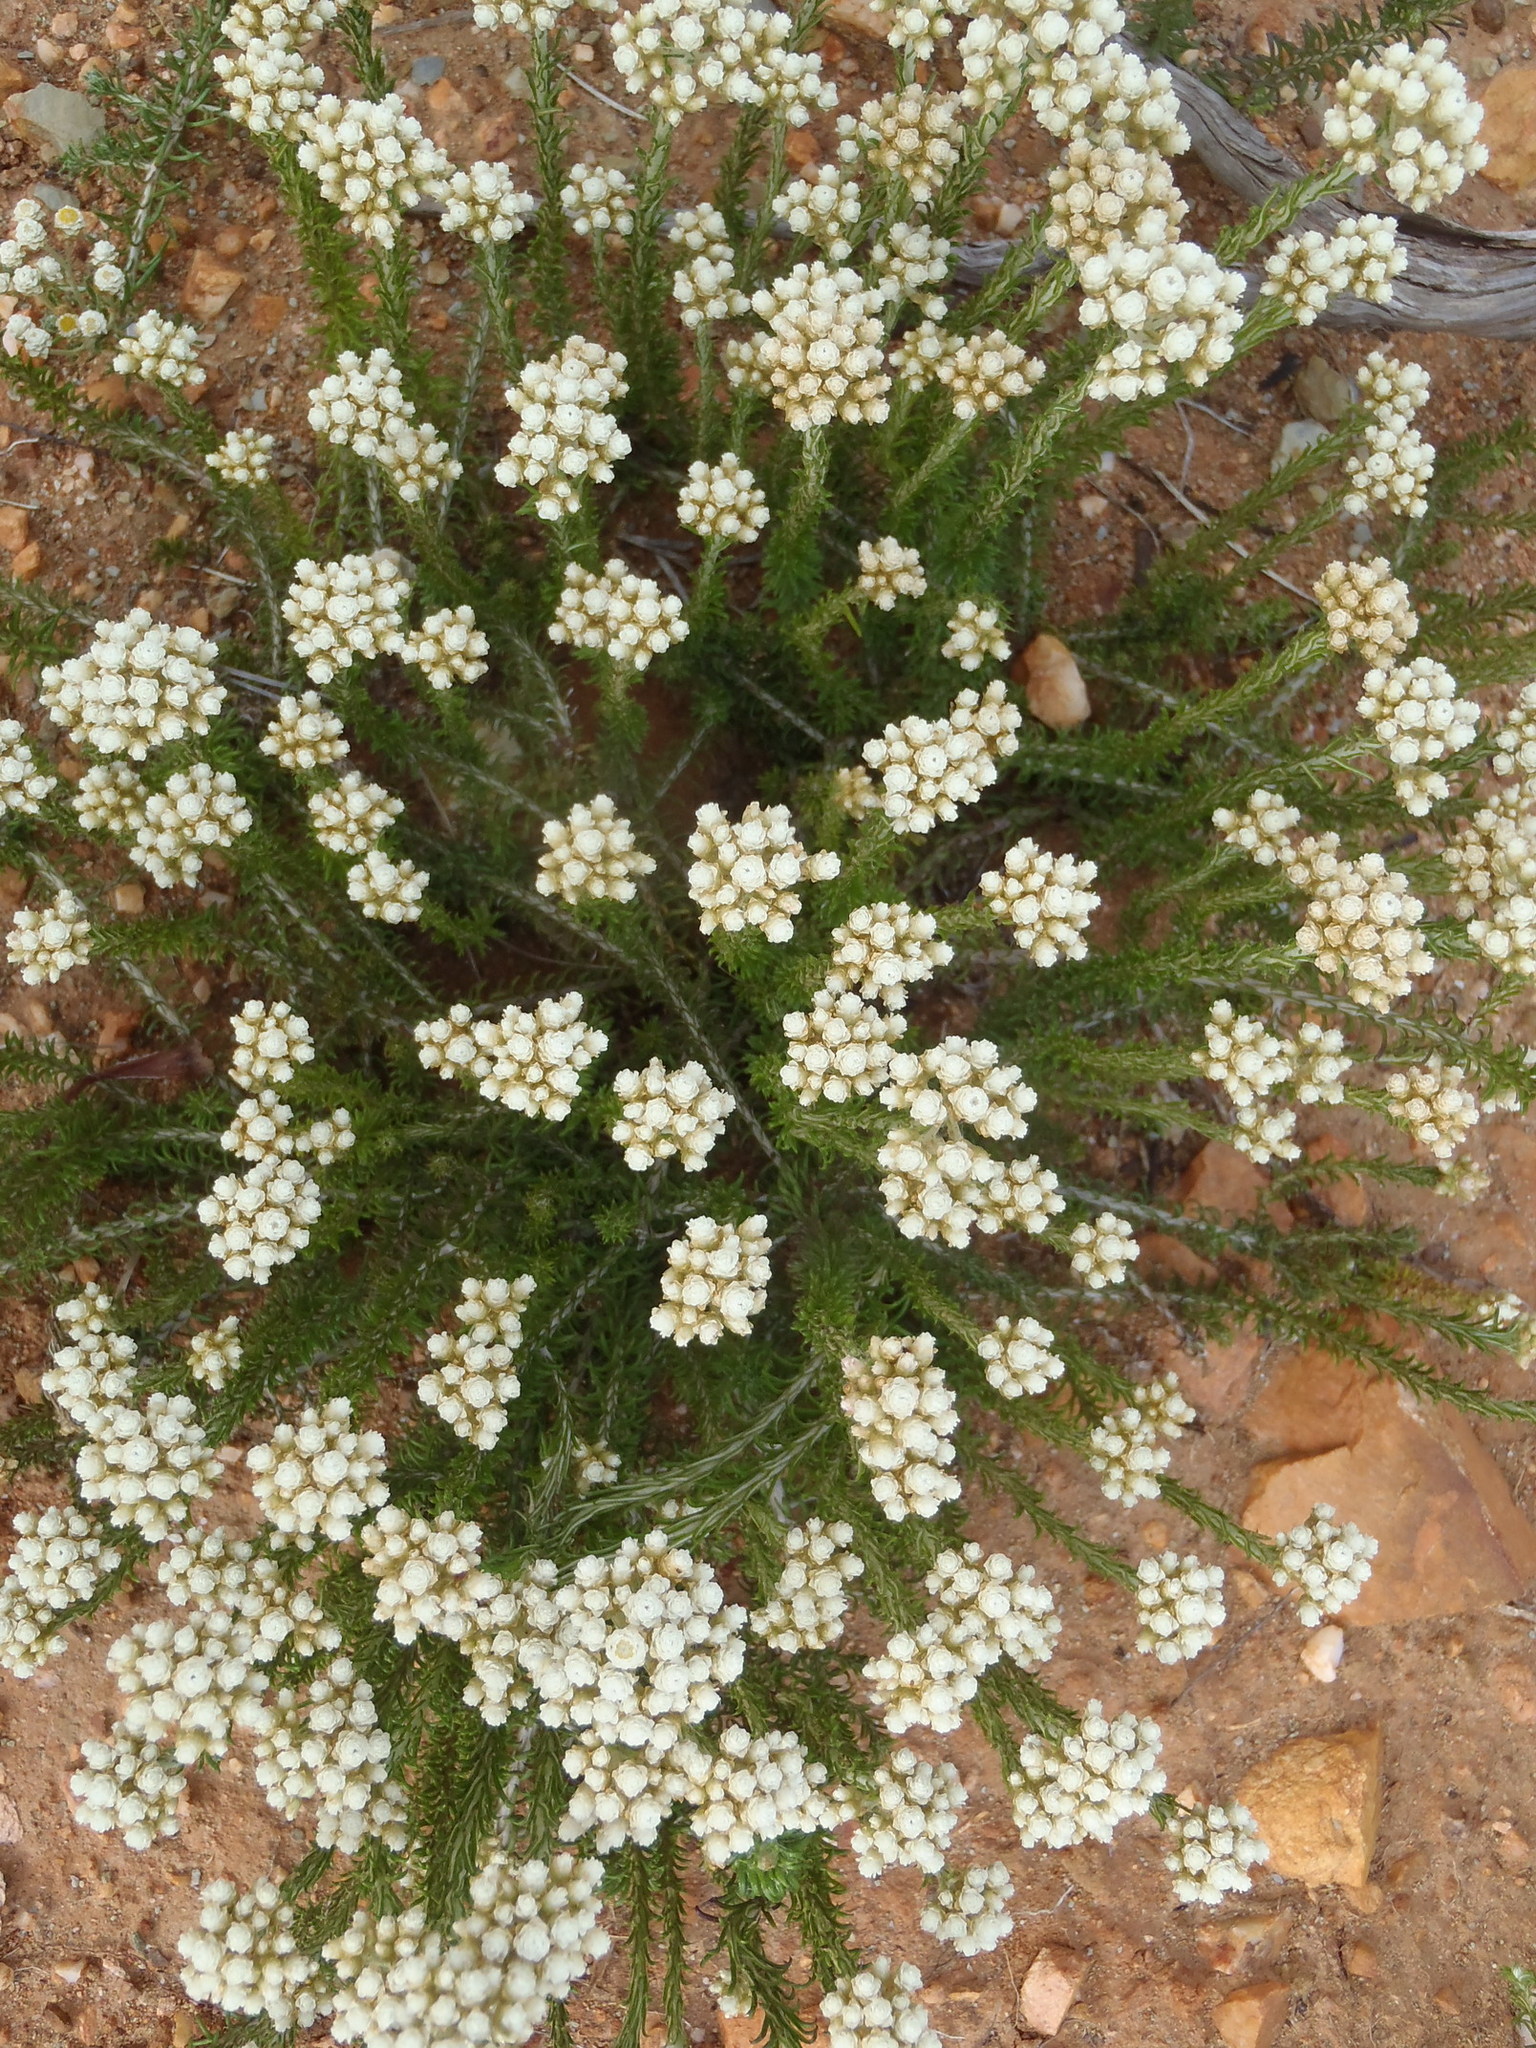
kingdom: Plantae
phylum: Tracheophyta
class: Magnoliopsida
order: Asterales
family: Asteraceae
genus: Helichrysum
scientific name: Helichrysum teretifolium
